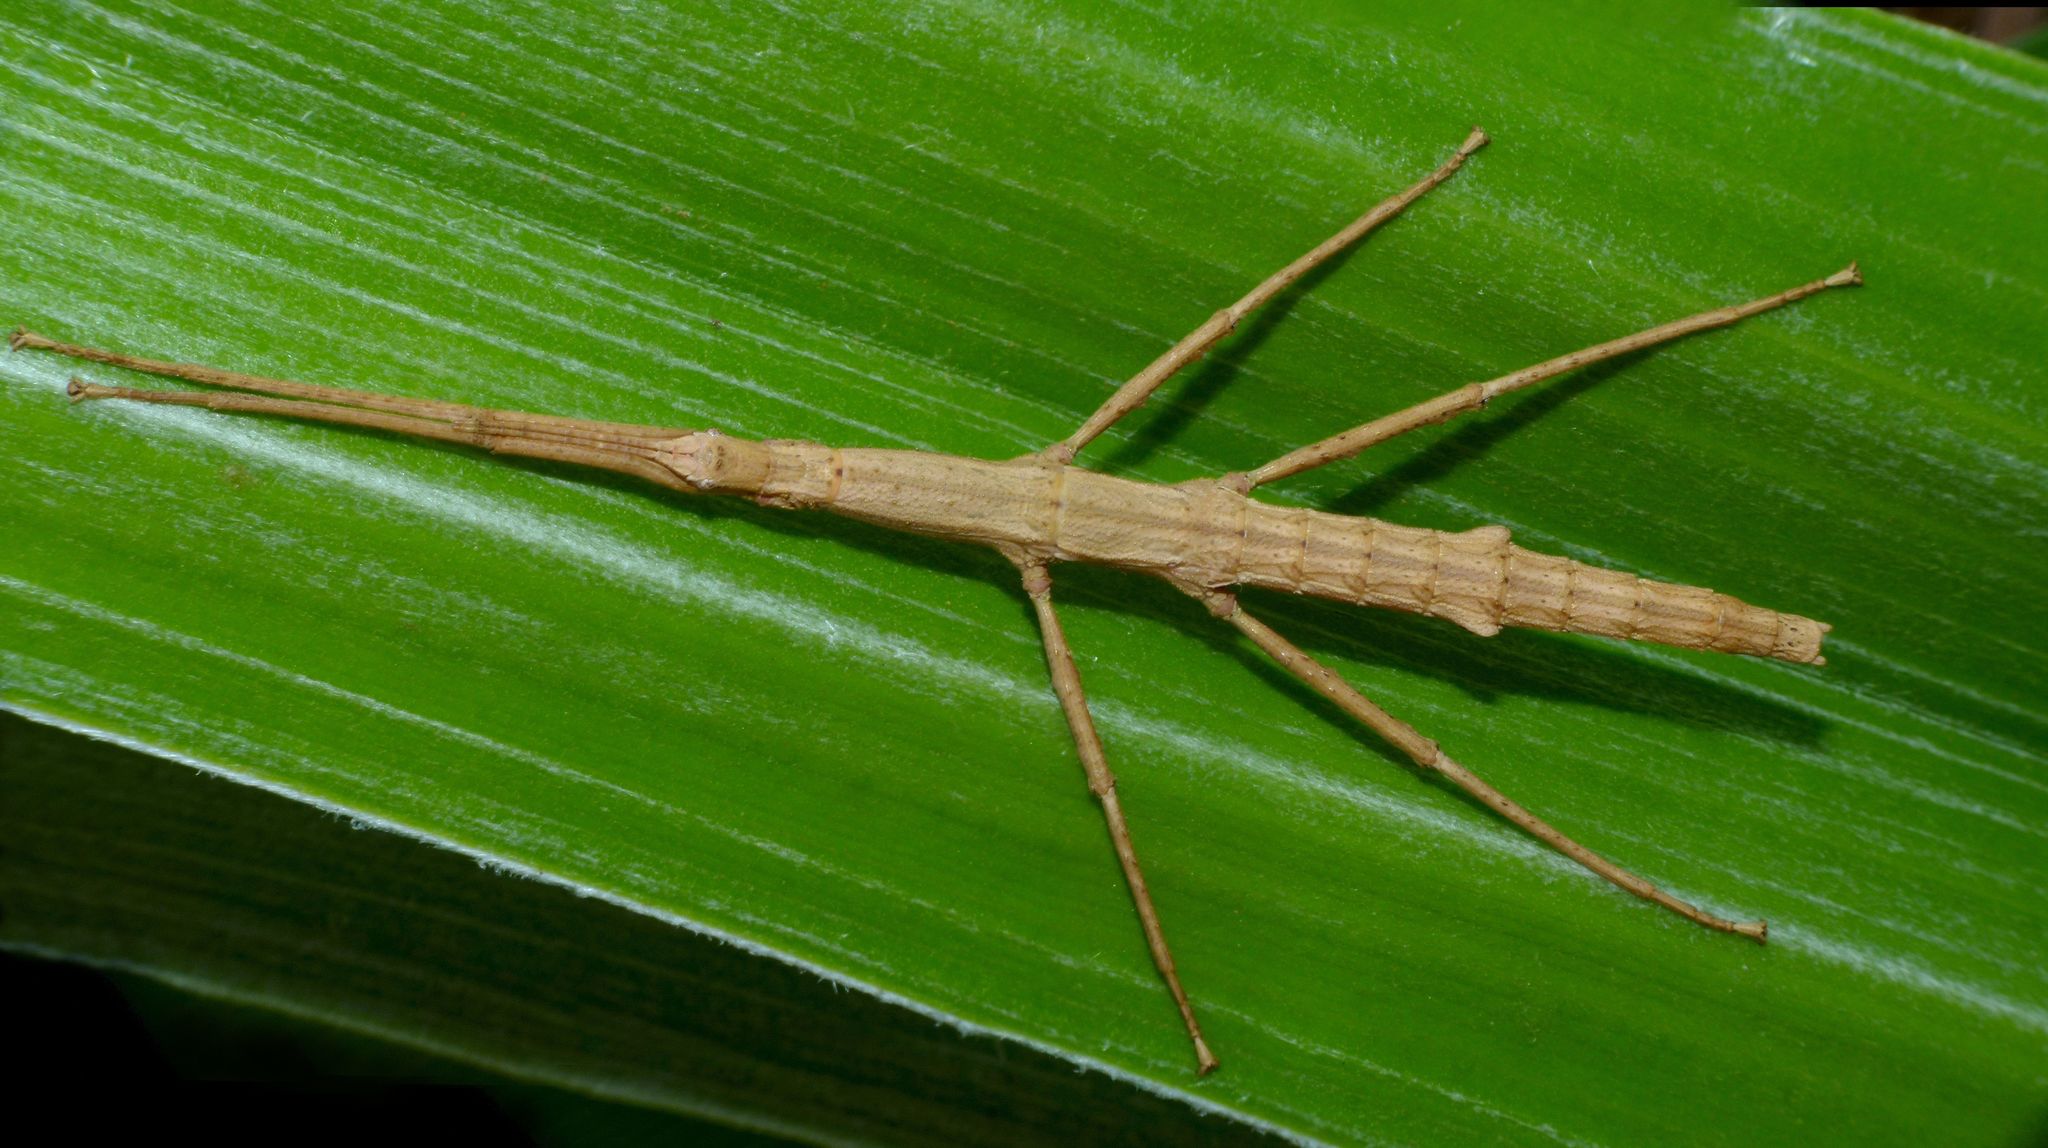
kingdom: Animalia
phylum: Arthropoda
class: Insecta
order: Phasmida
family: Phasmatidae
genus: Niveaphasma
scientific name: Niveaphasma annulatum
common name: Hutton's stick insect
